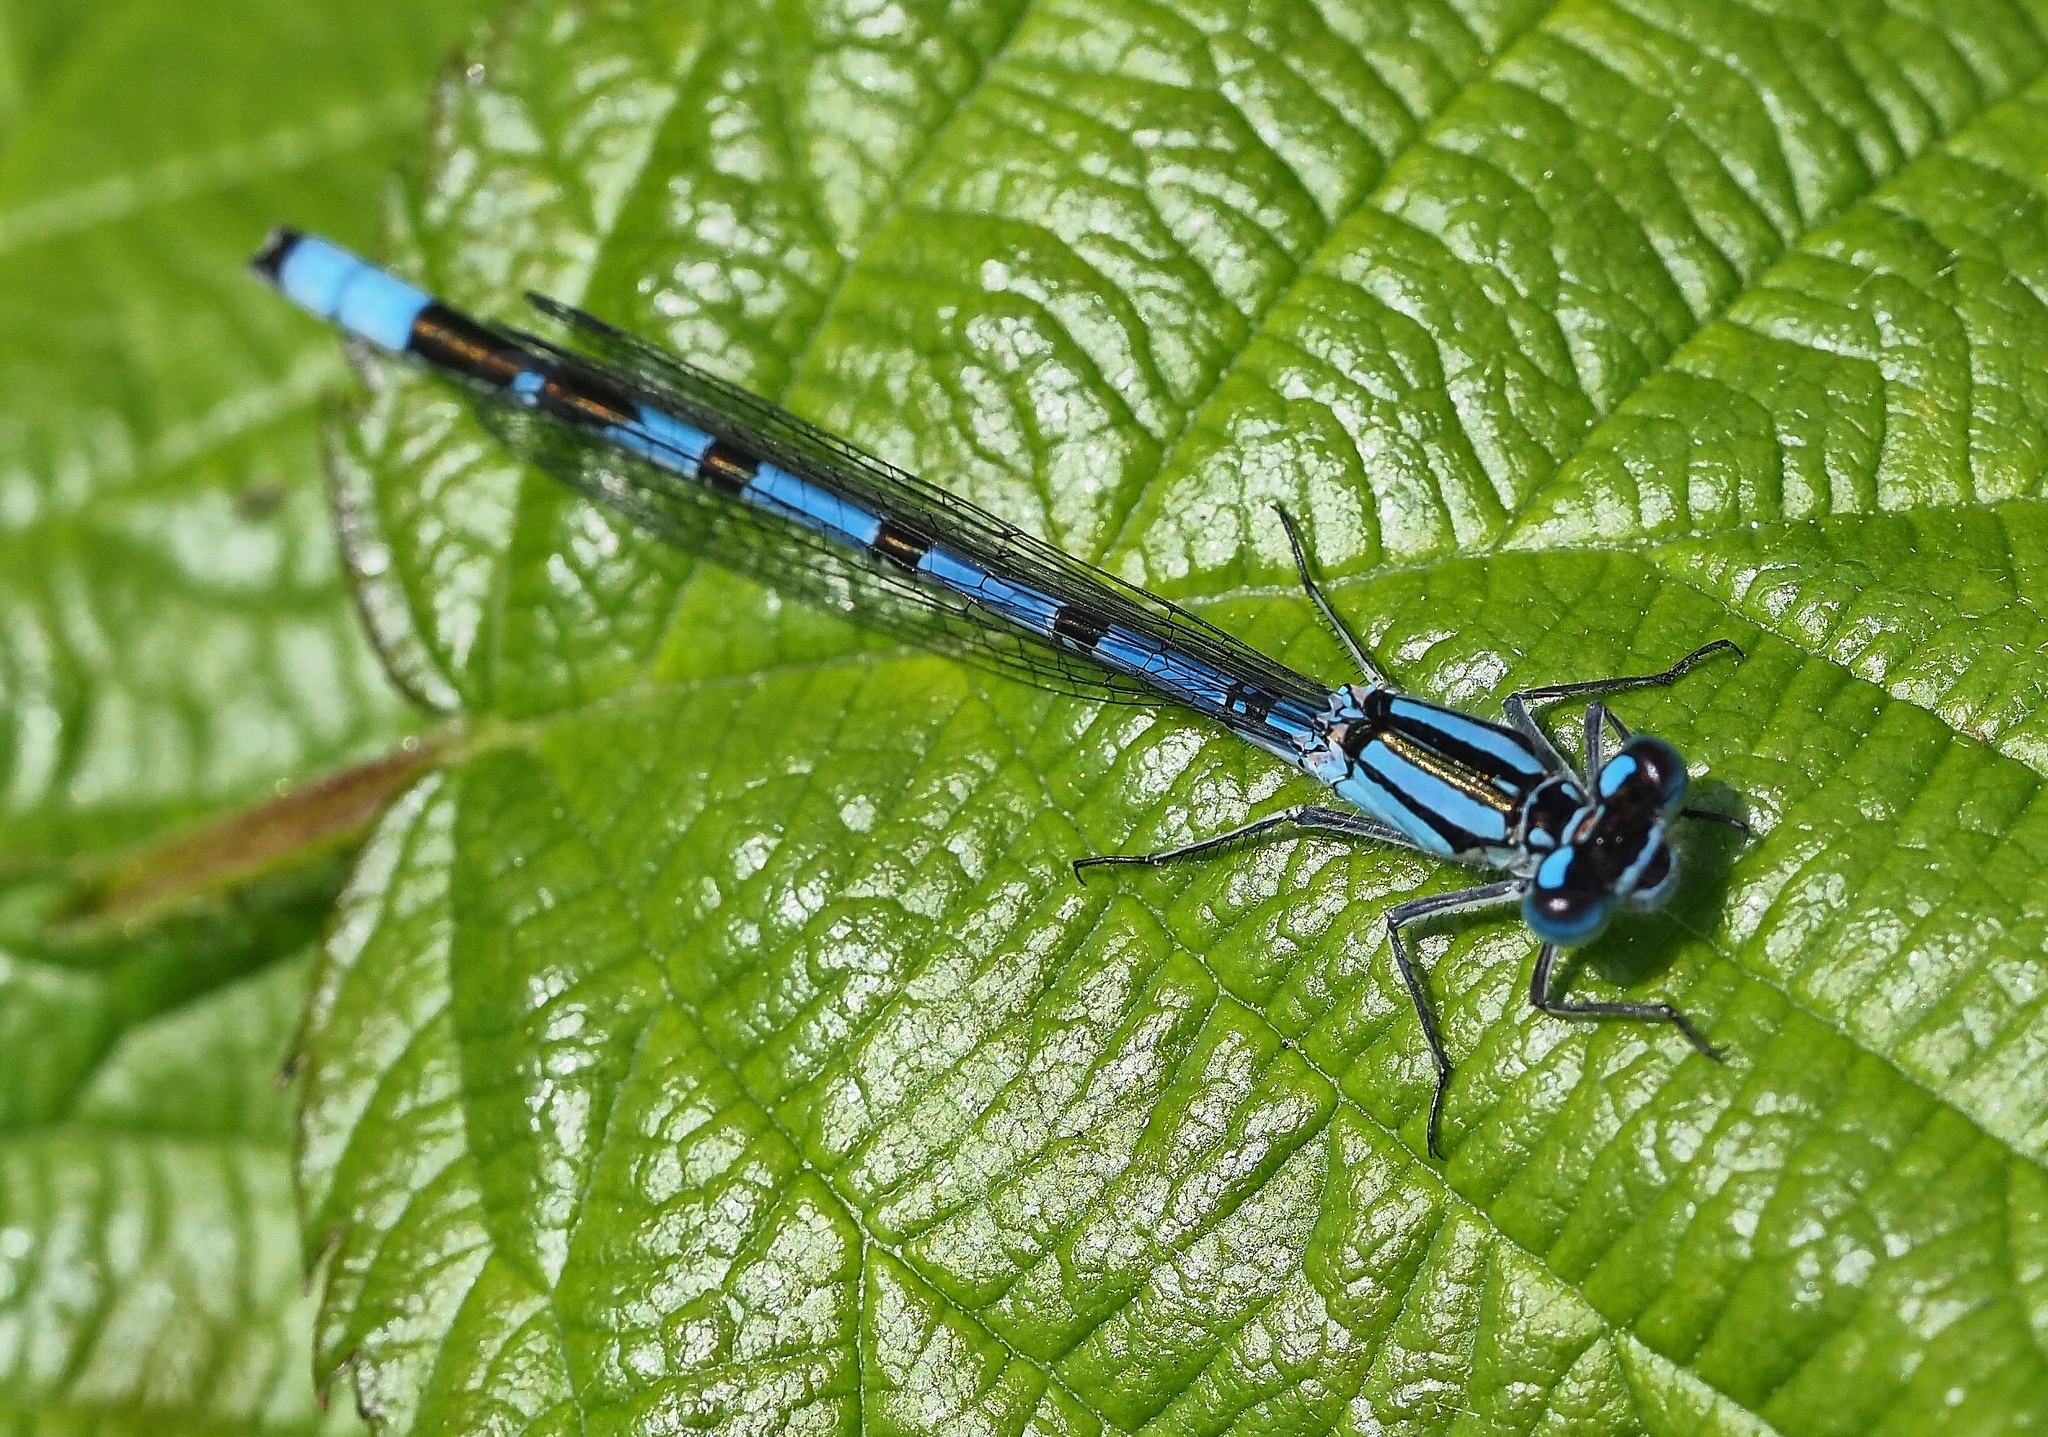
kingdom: Animalia
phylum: Arthropoda
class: Insecta
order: Odonata
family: Coenagrionidae
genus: Enallagma
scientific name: Enallagma cyathigerum
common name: Common blue damselfly
